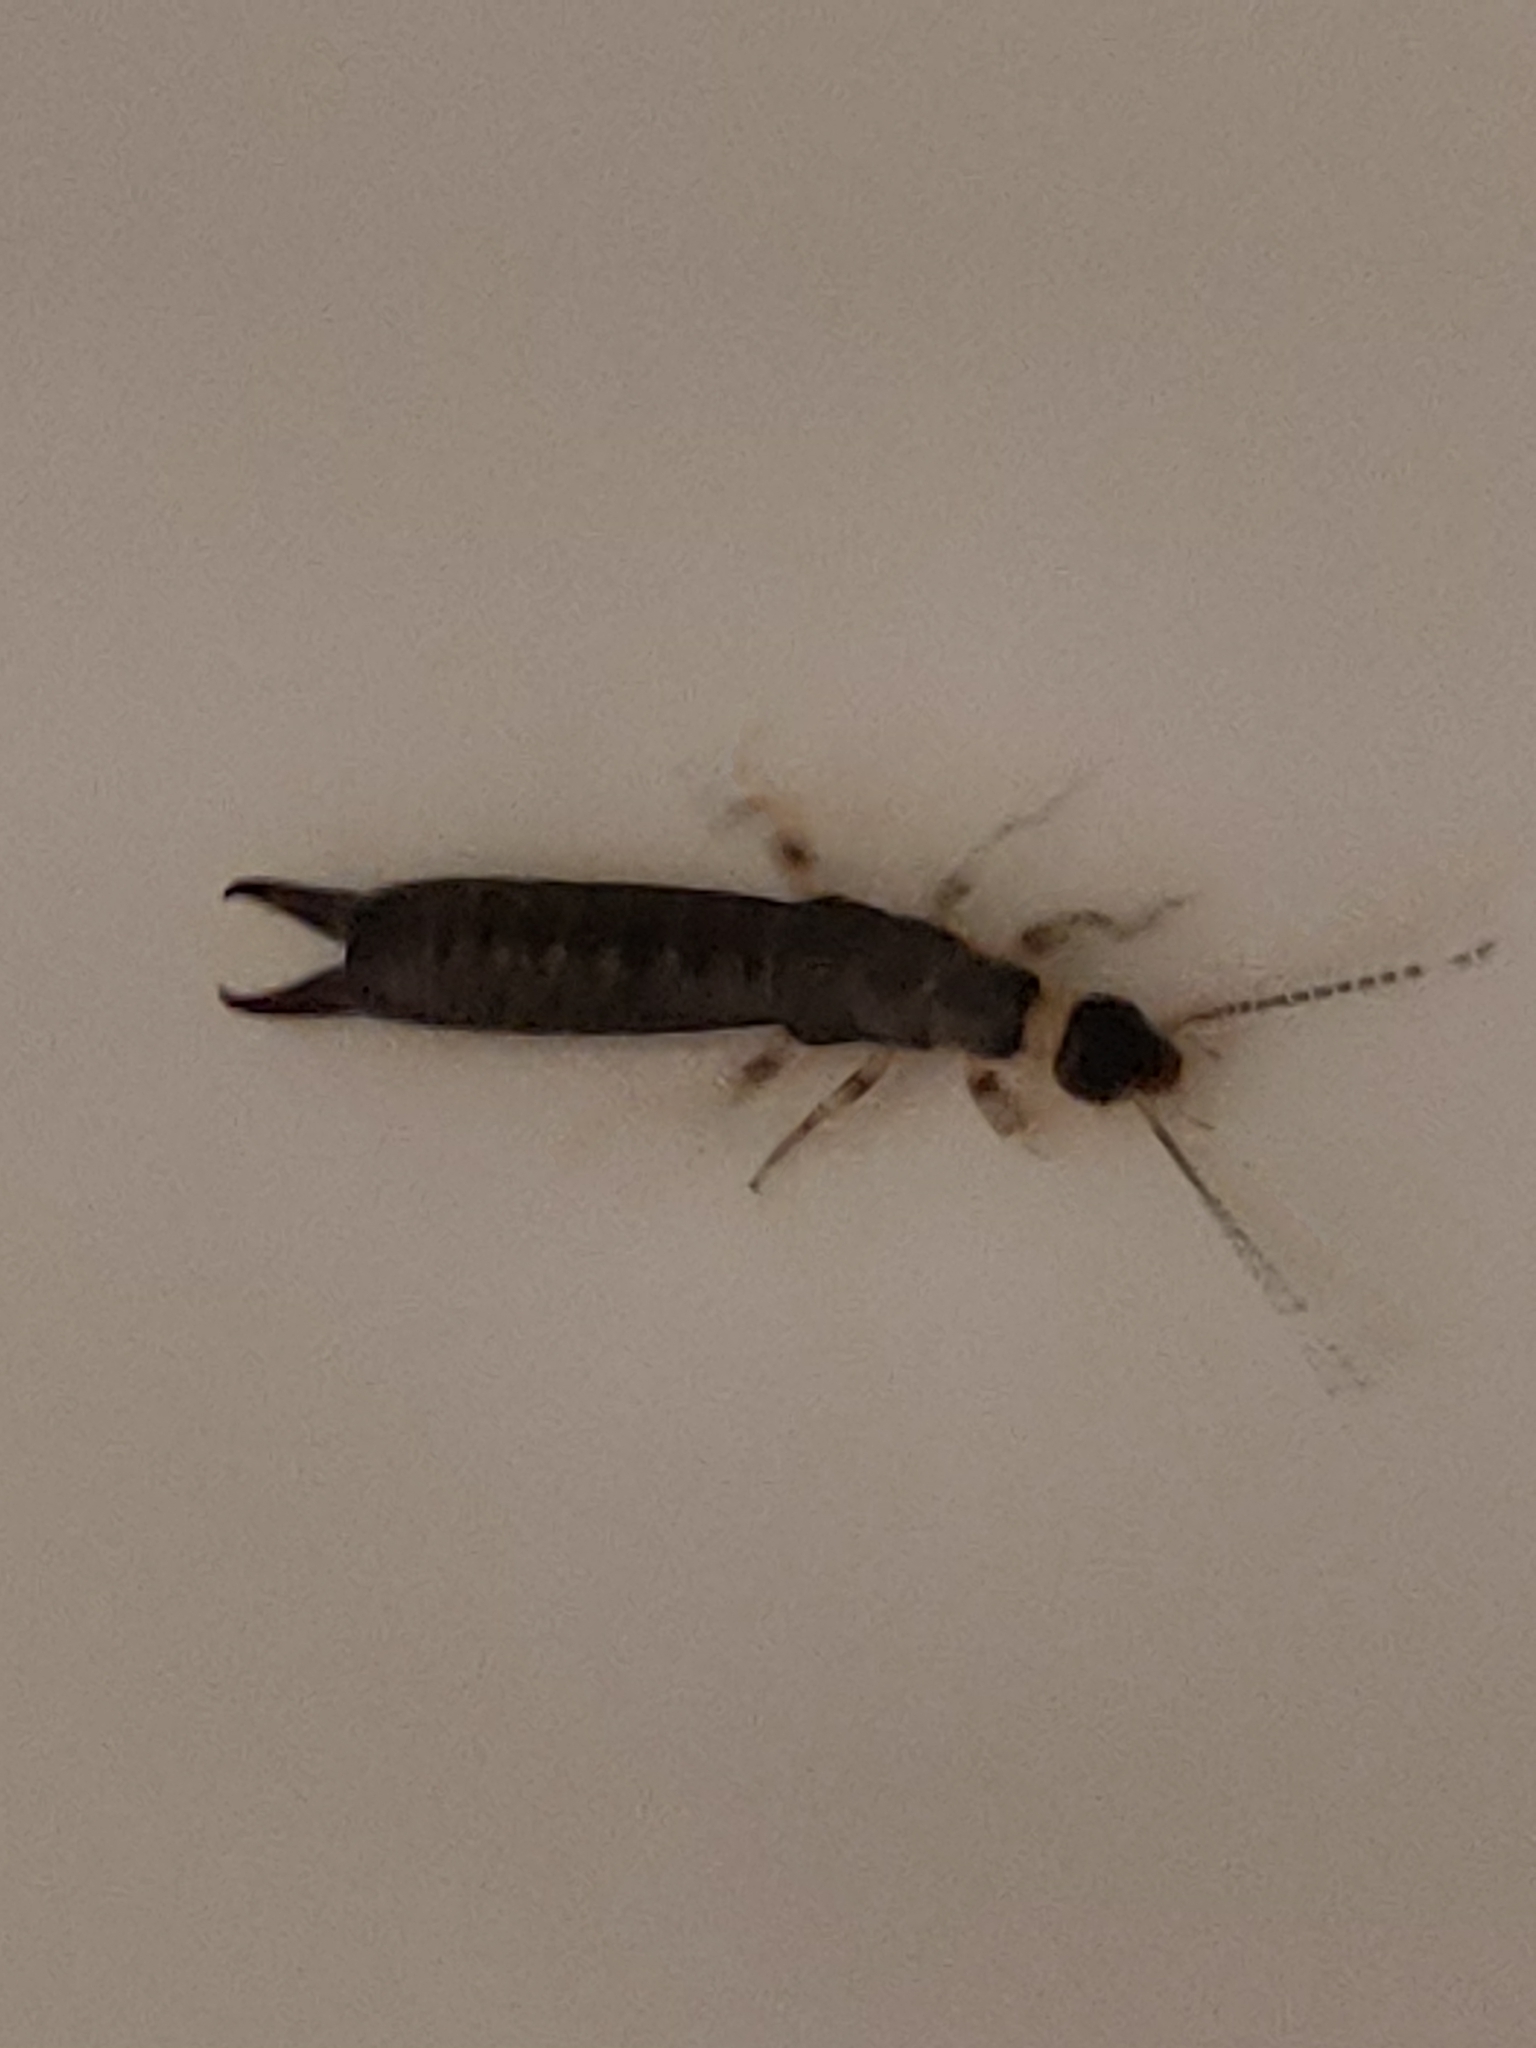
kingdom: Animalia
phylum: Arthropoda
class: Insecta
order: Dermaptera
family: Anisolabididae
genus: Euborellia
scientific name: Euborellia annulipes
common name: Ringlegged earwig
